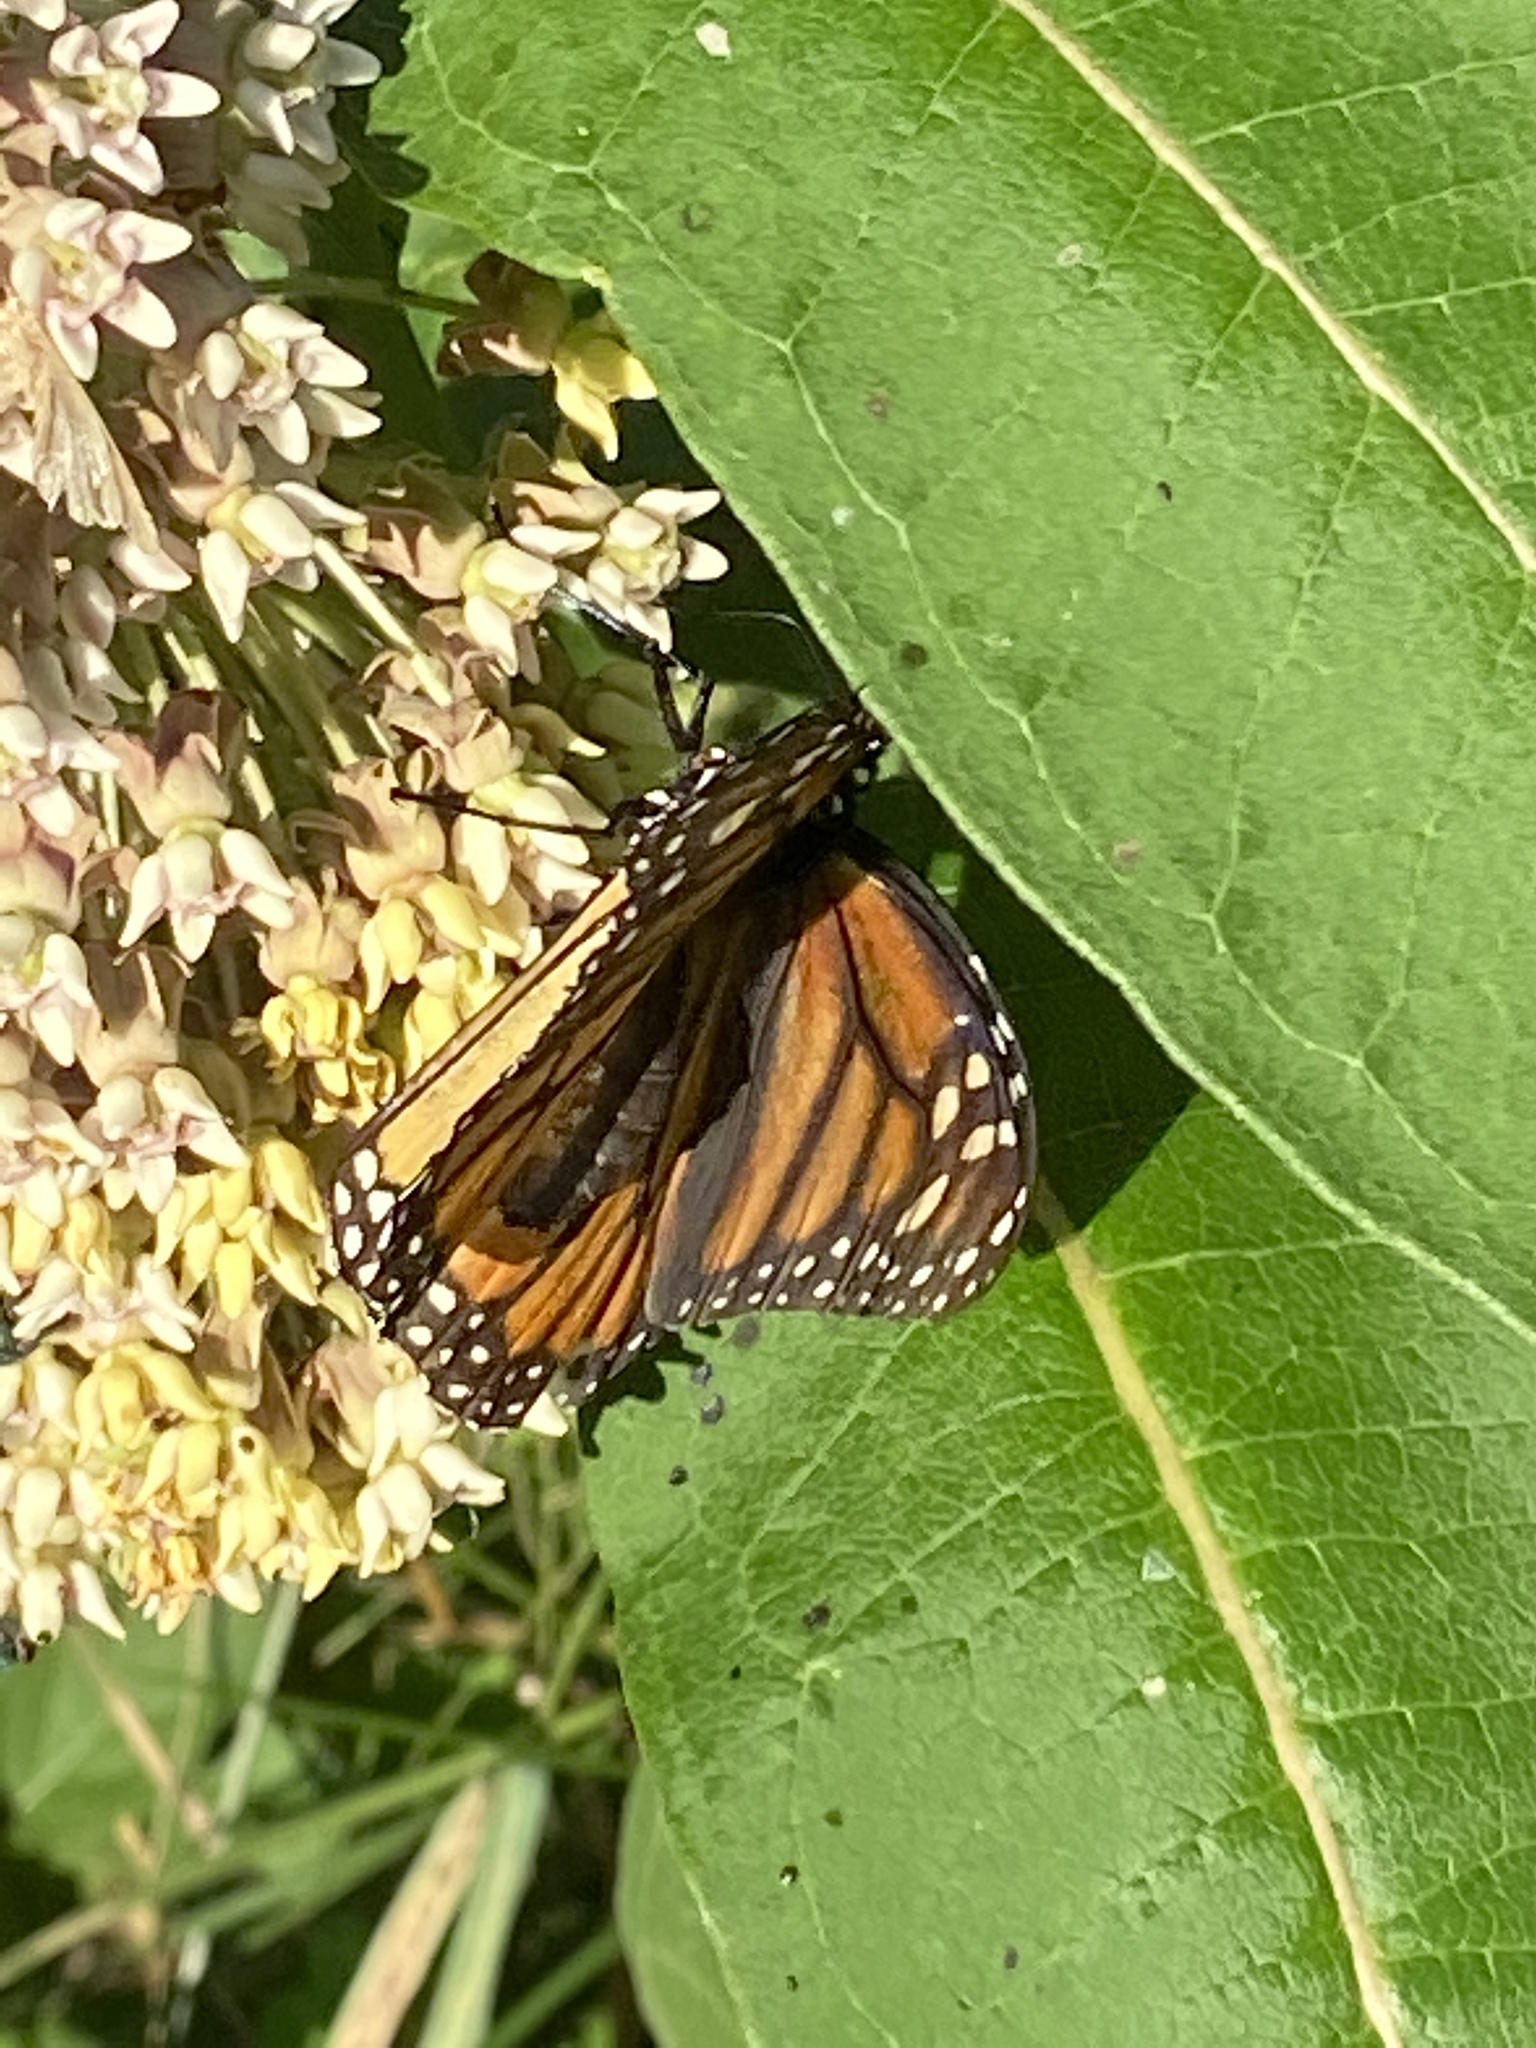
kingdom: Animalia
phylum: Arthropoda
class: Insecta
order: Lepidoptera
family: Nymphalidae
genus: Danaus
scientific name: Danaus plexippus
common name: Monarch
